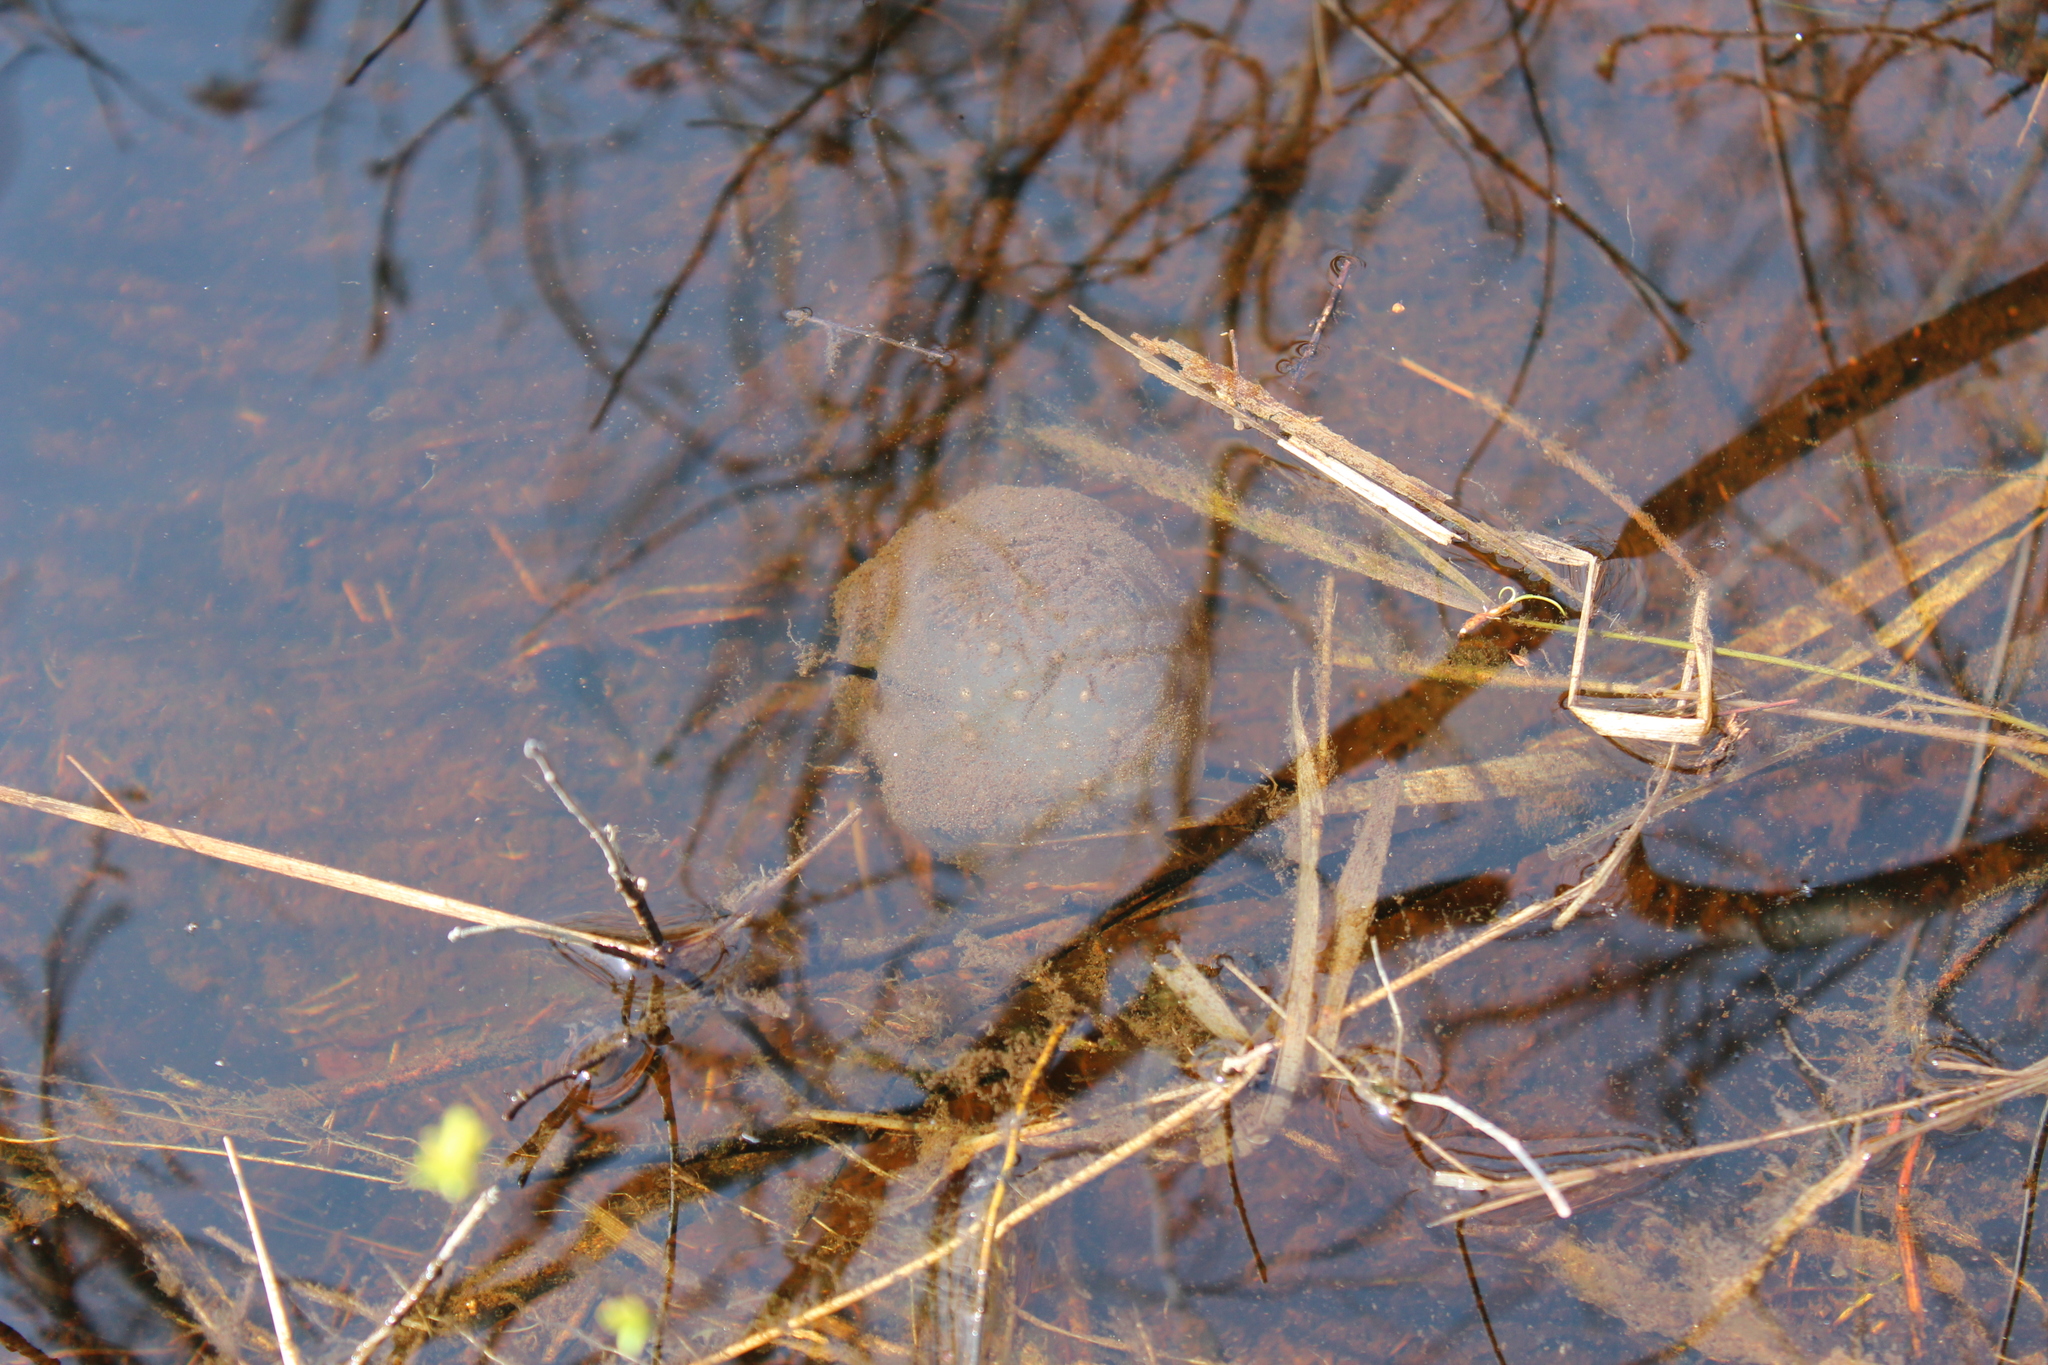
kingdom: Animalia
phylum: Chordata
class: Amphibia
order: Caudata
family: Ambystomatidae
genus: Ambystoma
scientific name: Ambystoma maculatum
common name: Spotted salamander
